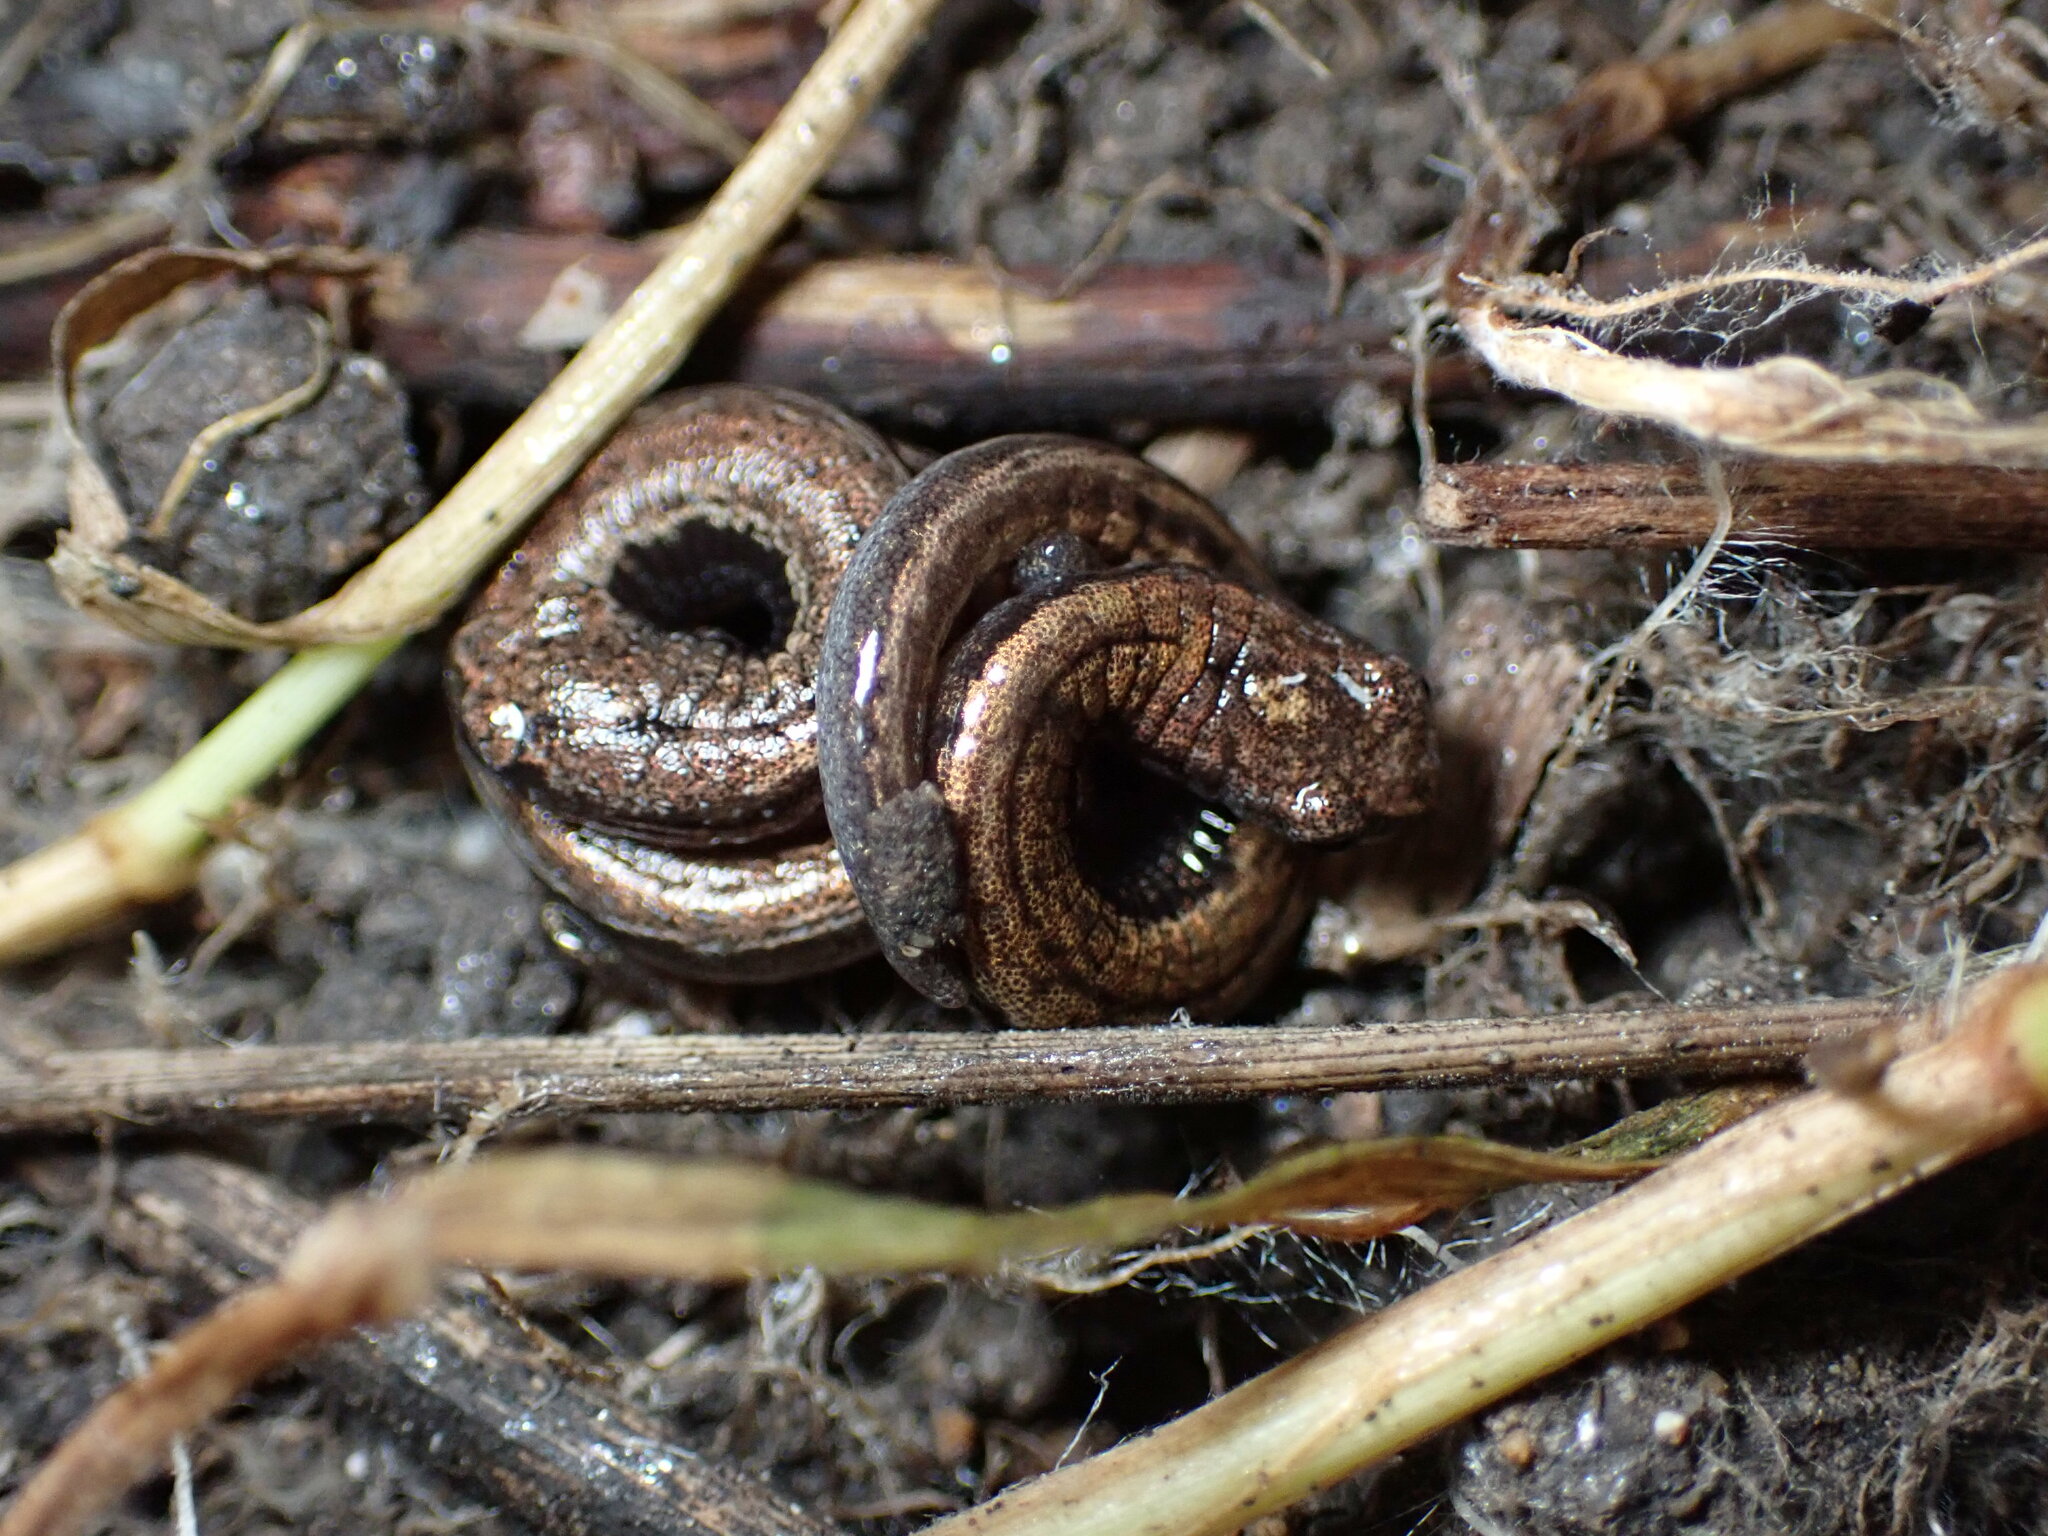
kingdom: Animalia
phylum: Chordata
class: Amphibia
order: Caudata
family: Plethodontidae
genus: Batrachoseps
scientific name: Batrachoseps attenuatus
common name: California slender salamander
